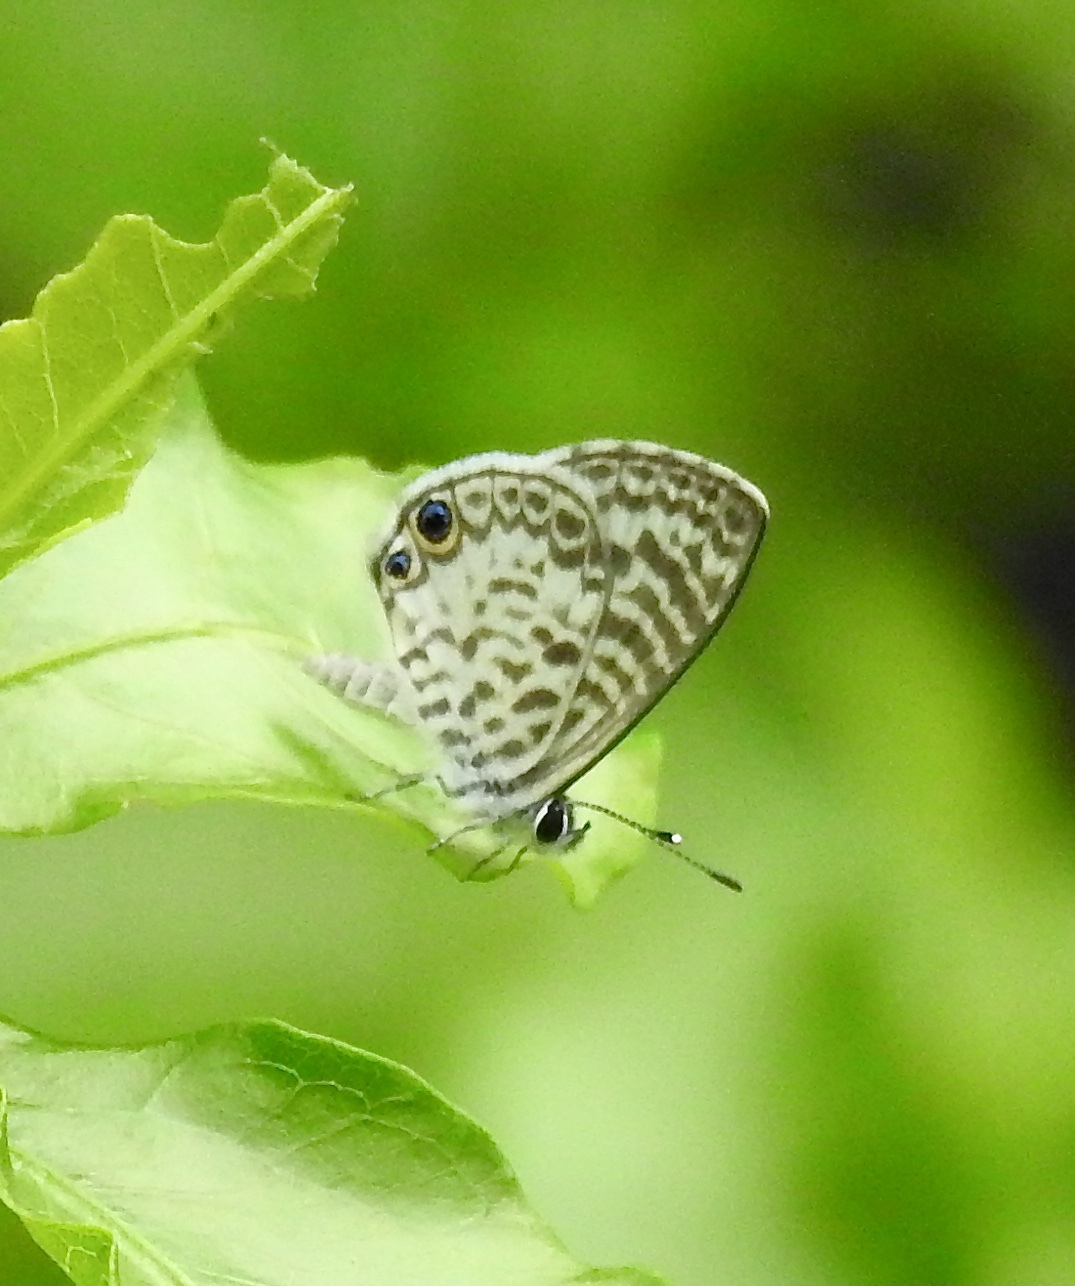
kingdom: Animalia
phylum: Arthropoda
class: Insecta
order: Lepidoptera
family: Lycaenidae
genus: Leptotes
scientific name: Leptotes cassius
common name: Cassius blue
